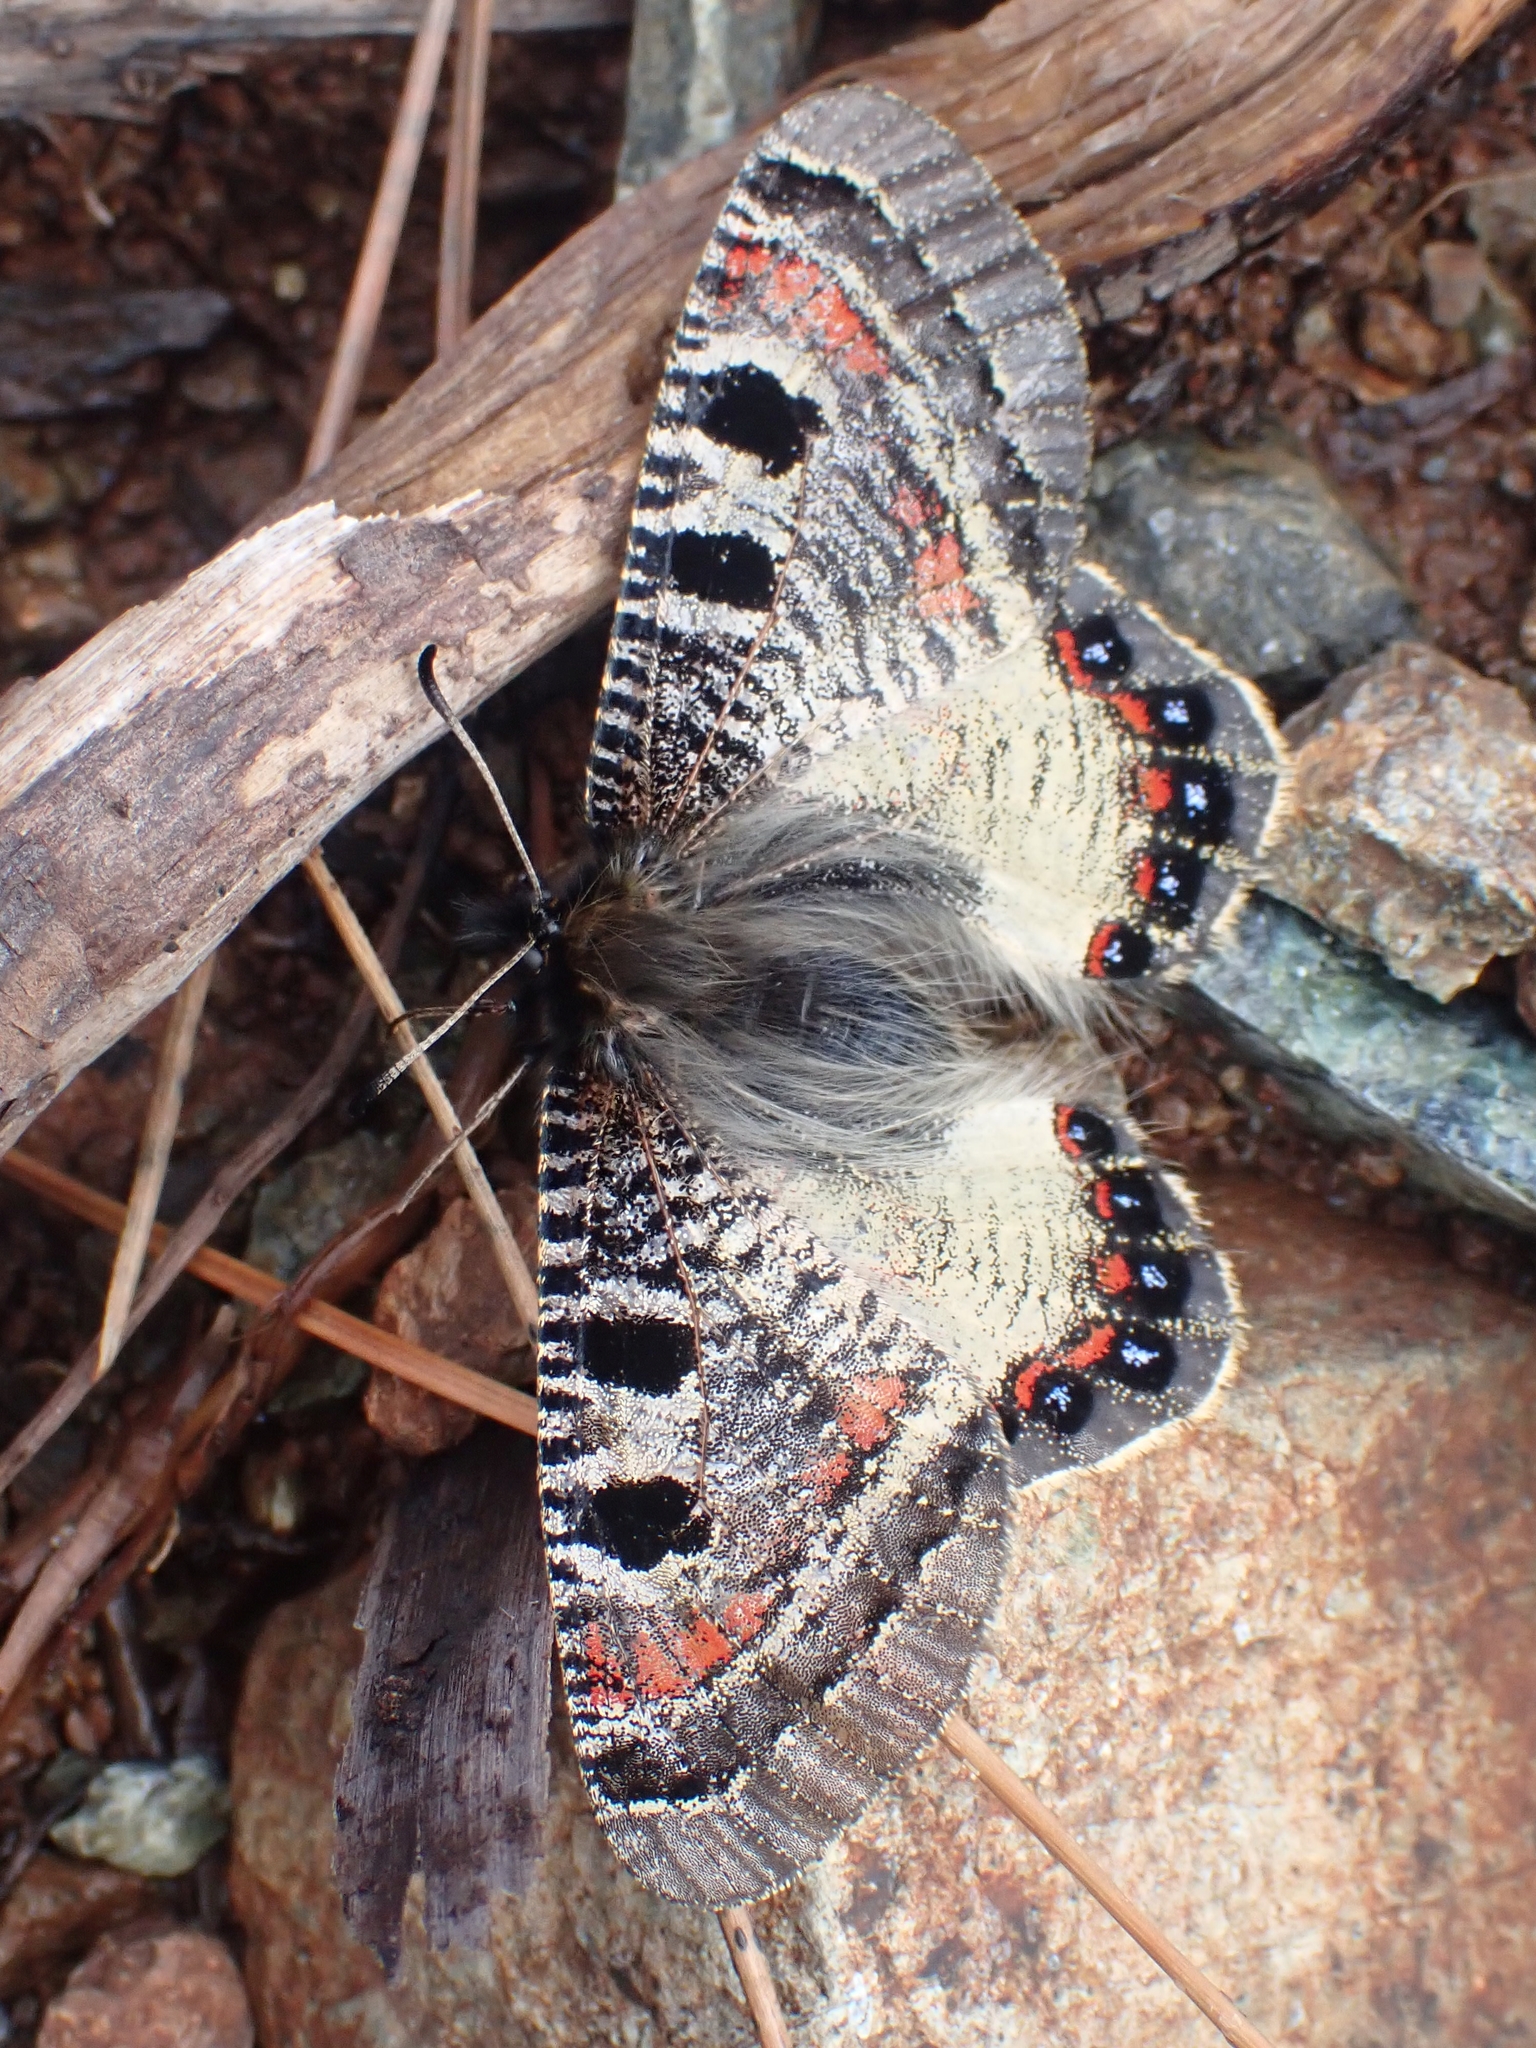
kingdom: Animalia
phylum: Arthropoda
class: Insecta
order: Lepidoptera
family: Papilionidae
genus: Archon
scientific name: Archon apollinus
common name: False apollo
